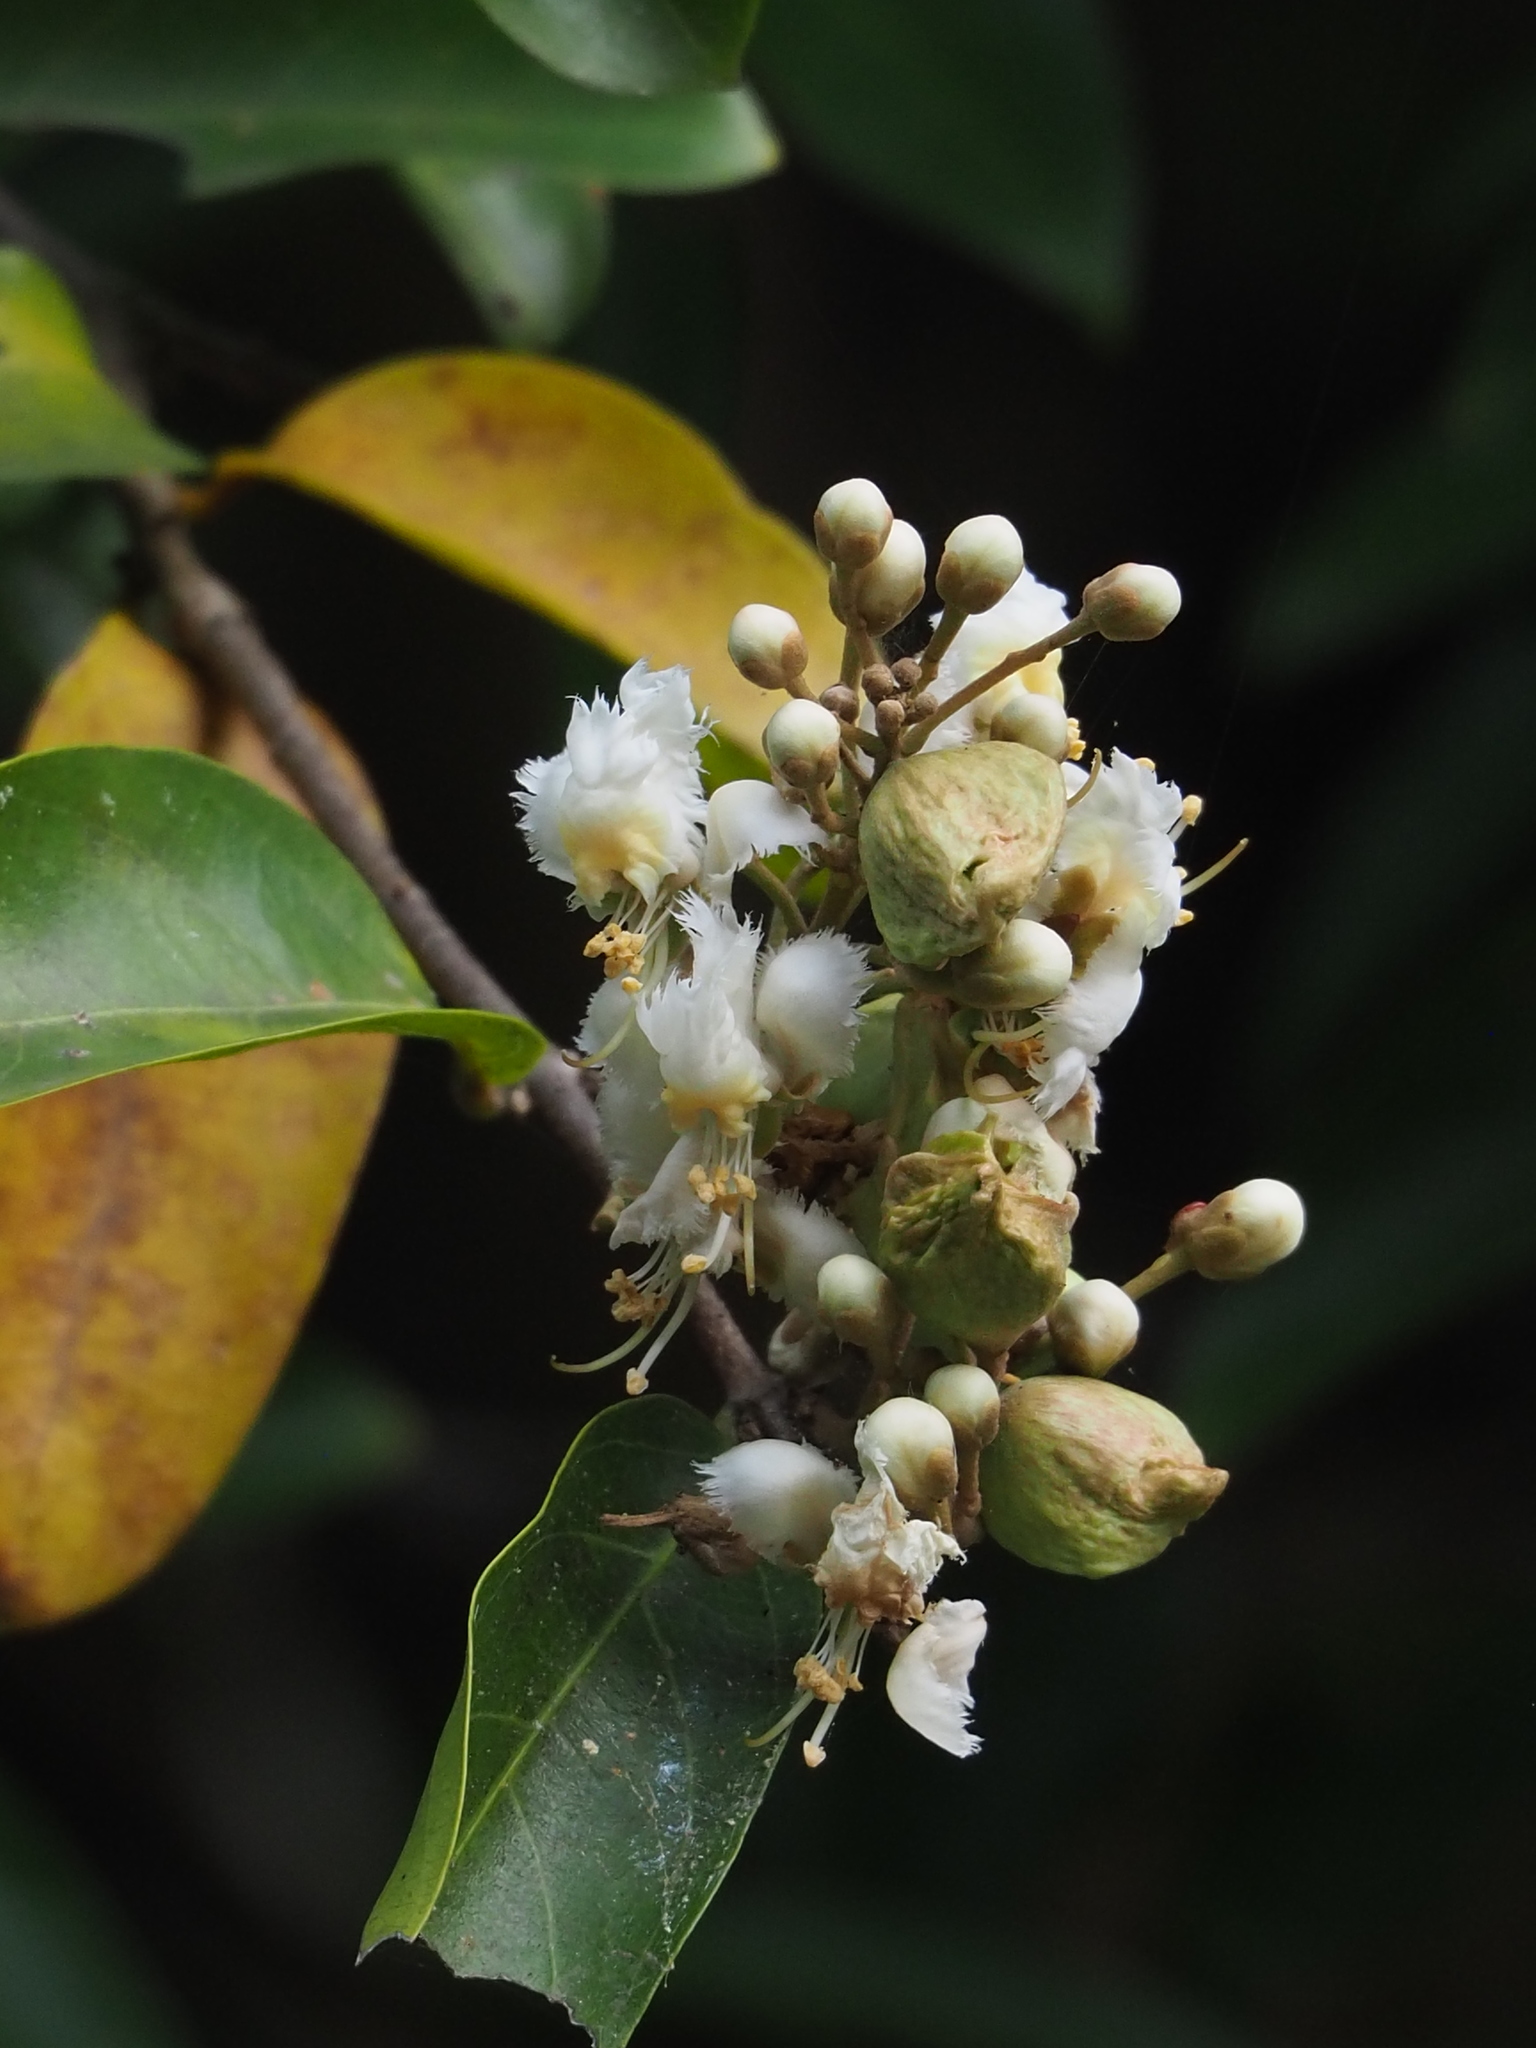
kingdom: Plantae
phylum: Tracheophyta
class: Magnoliopsida
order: Malpighiales
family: Malpighiaceae
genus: Hiptage
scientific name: Hiptage benghalensis
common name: Hiptage
